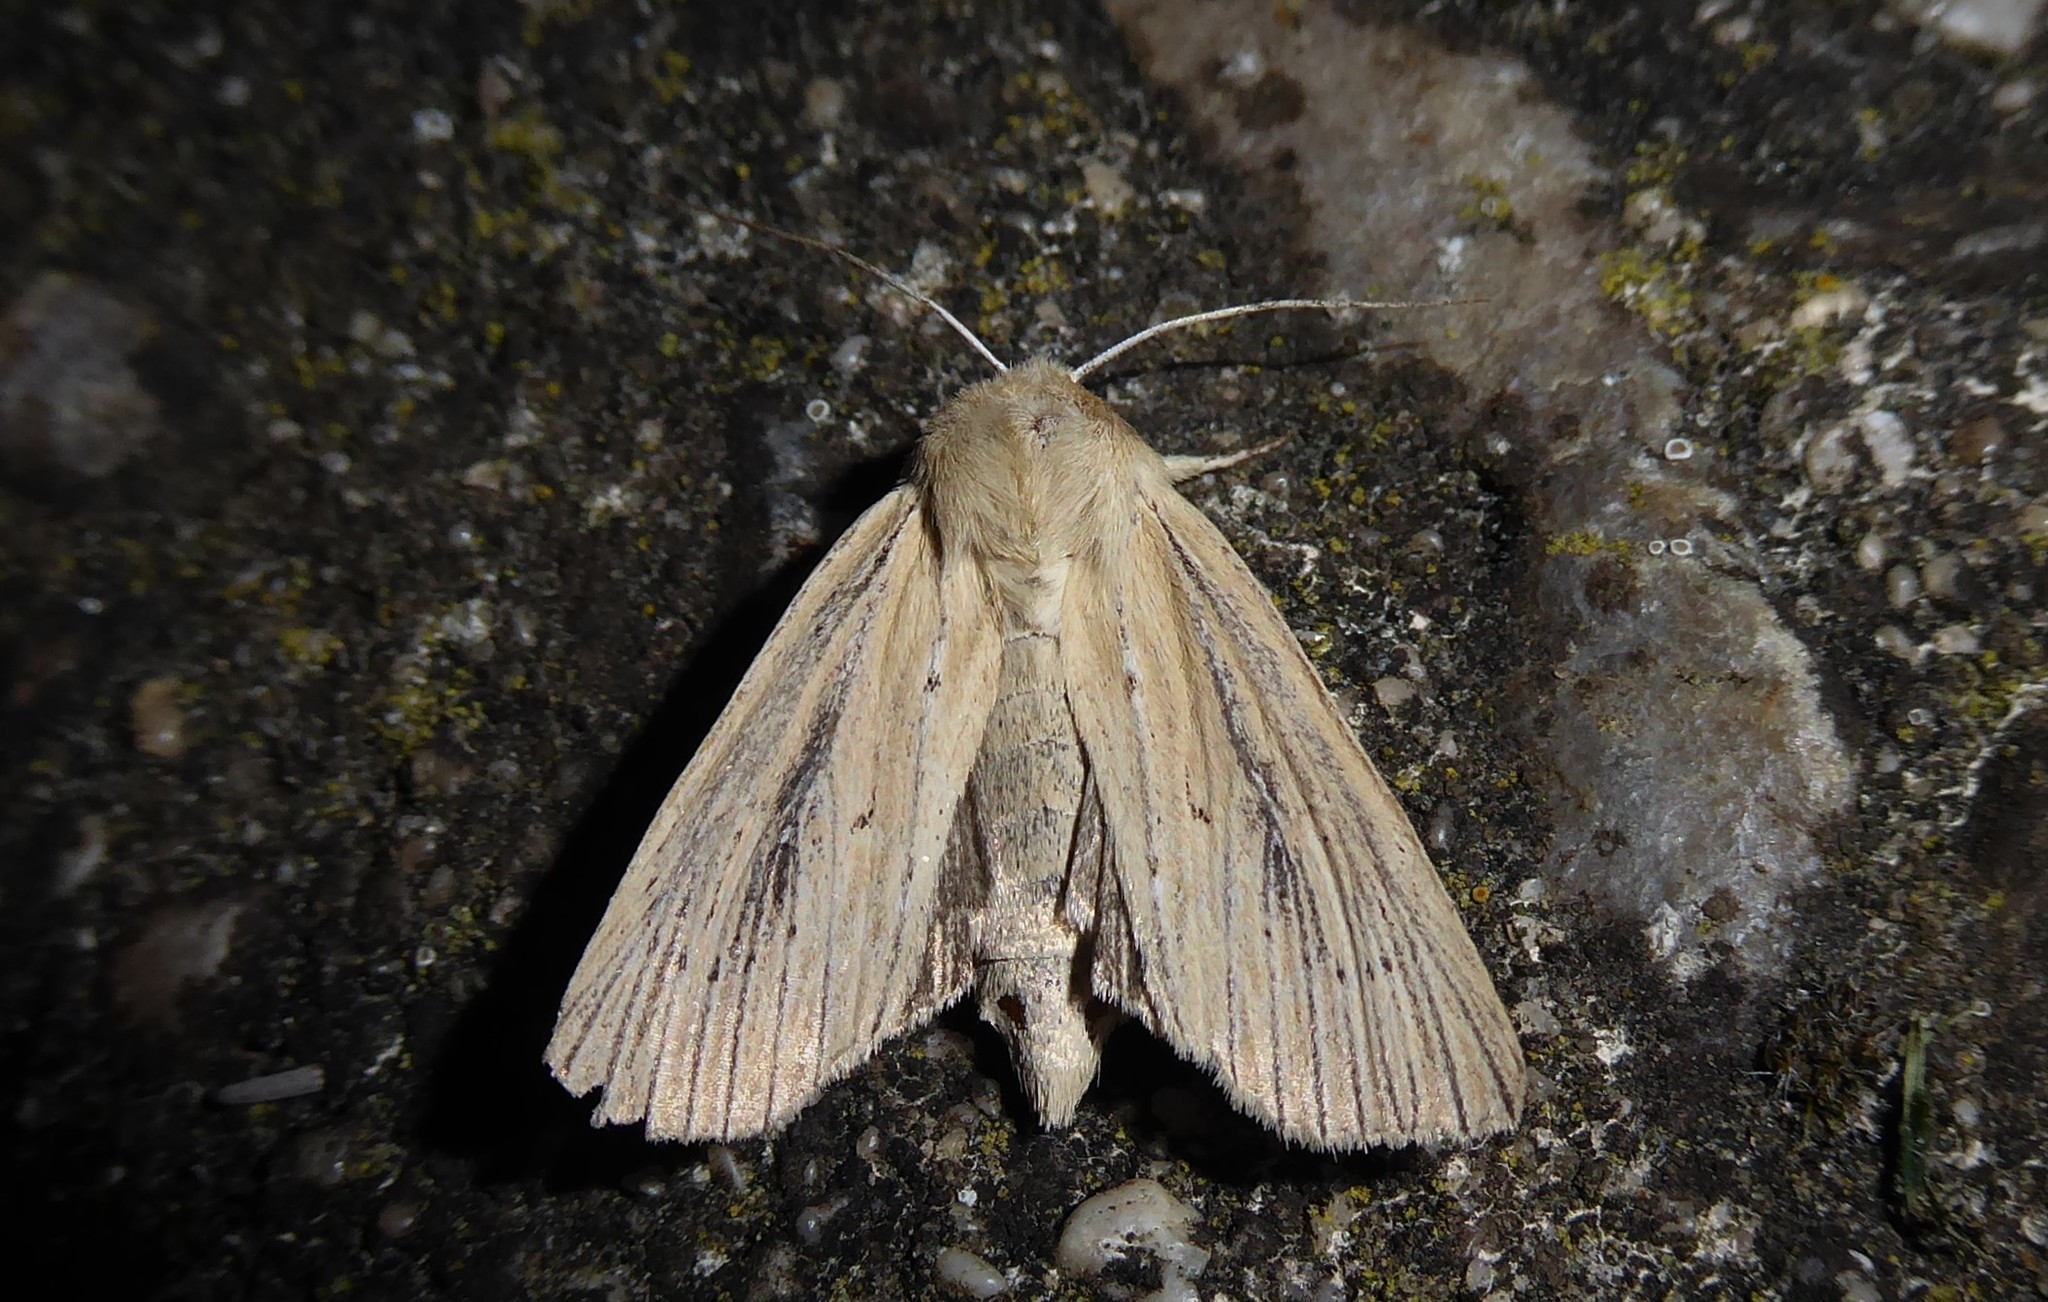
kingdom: Animalia
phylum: Arthropoda
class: Insecta
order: Lepidoptera
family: Noctuidae
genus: Ichneutica
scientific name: Ichneutica arotis
